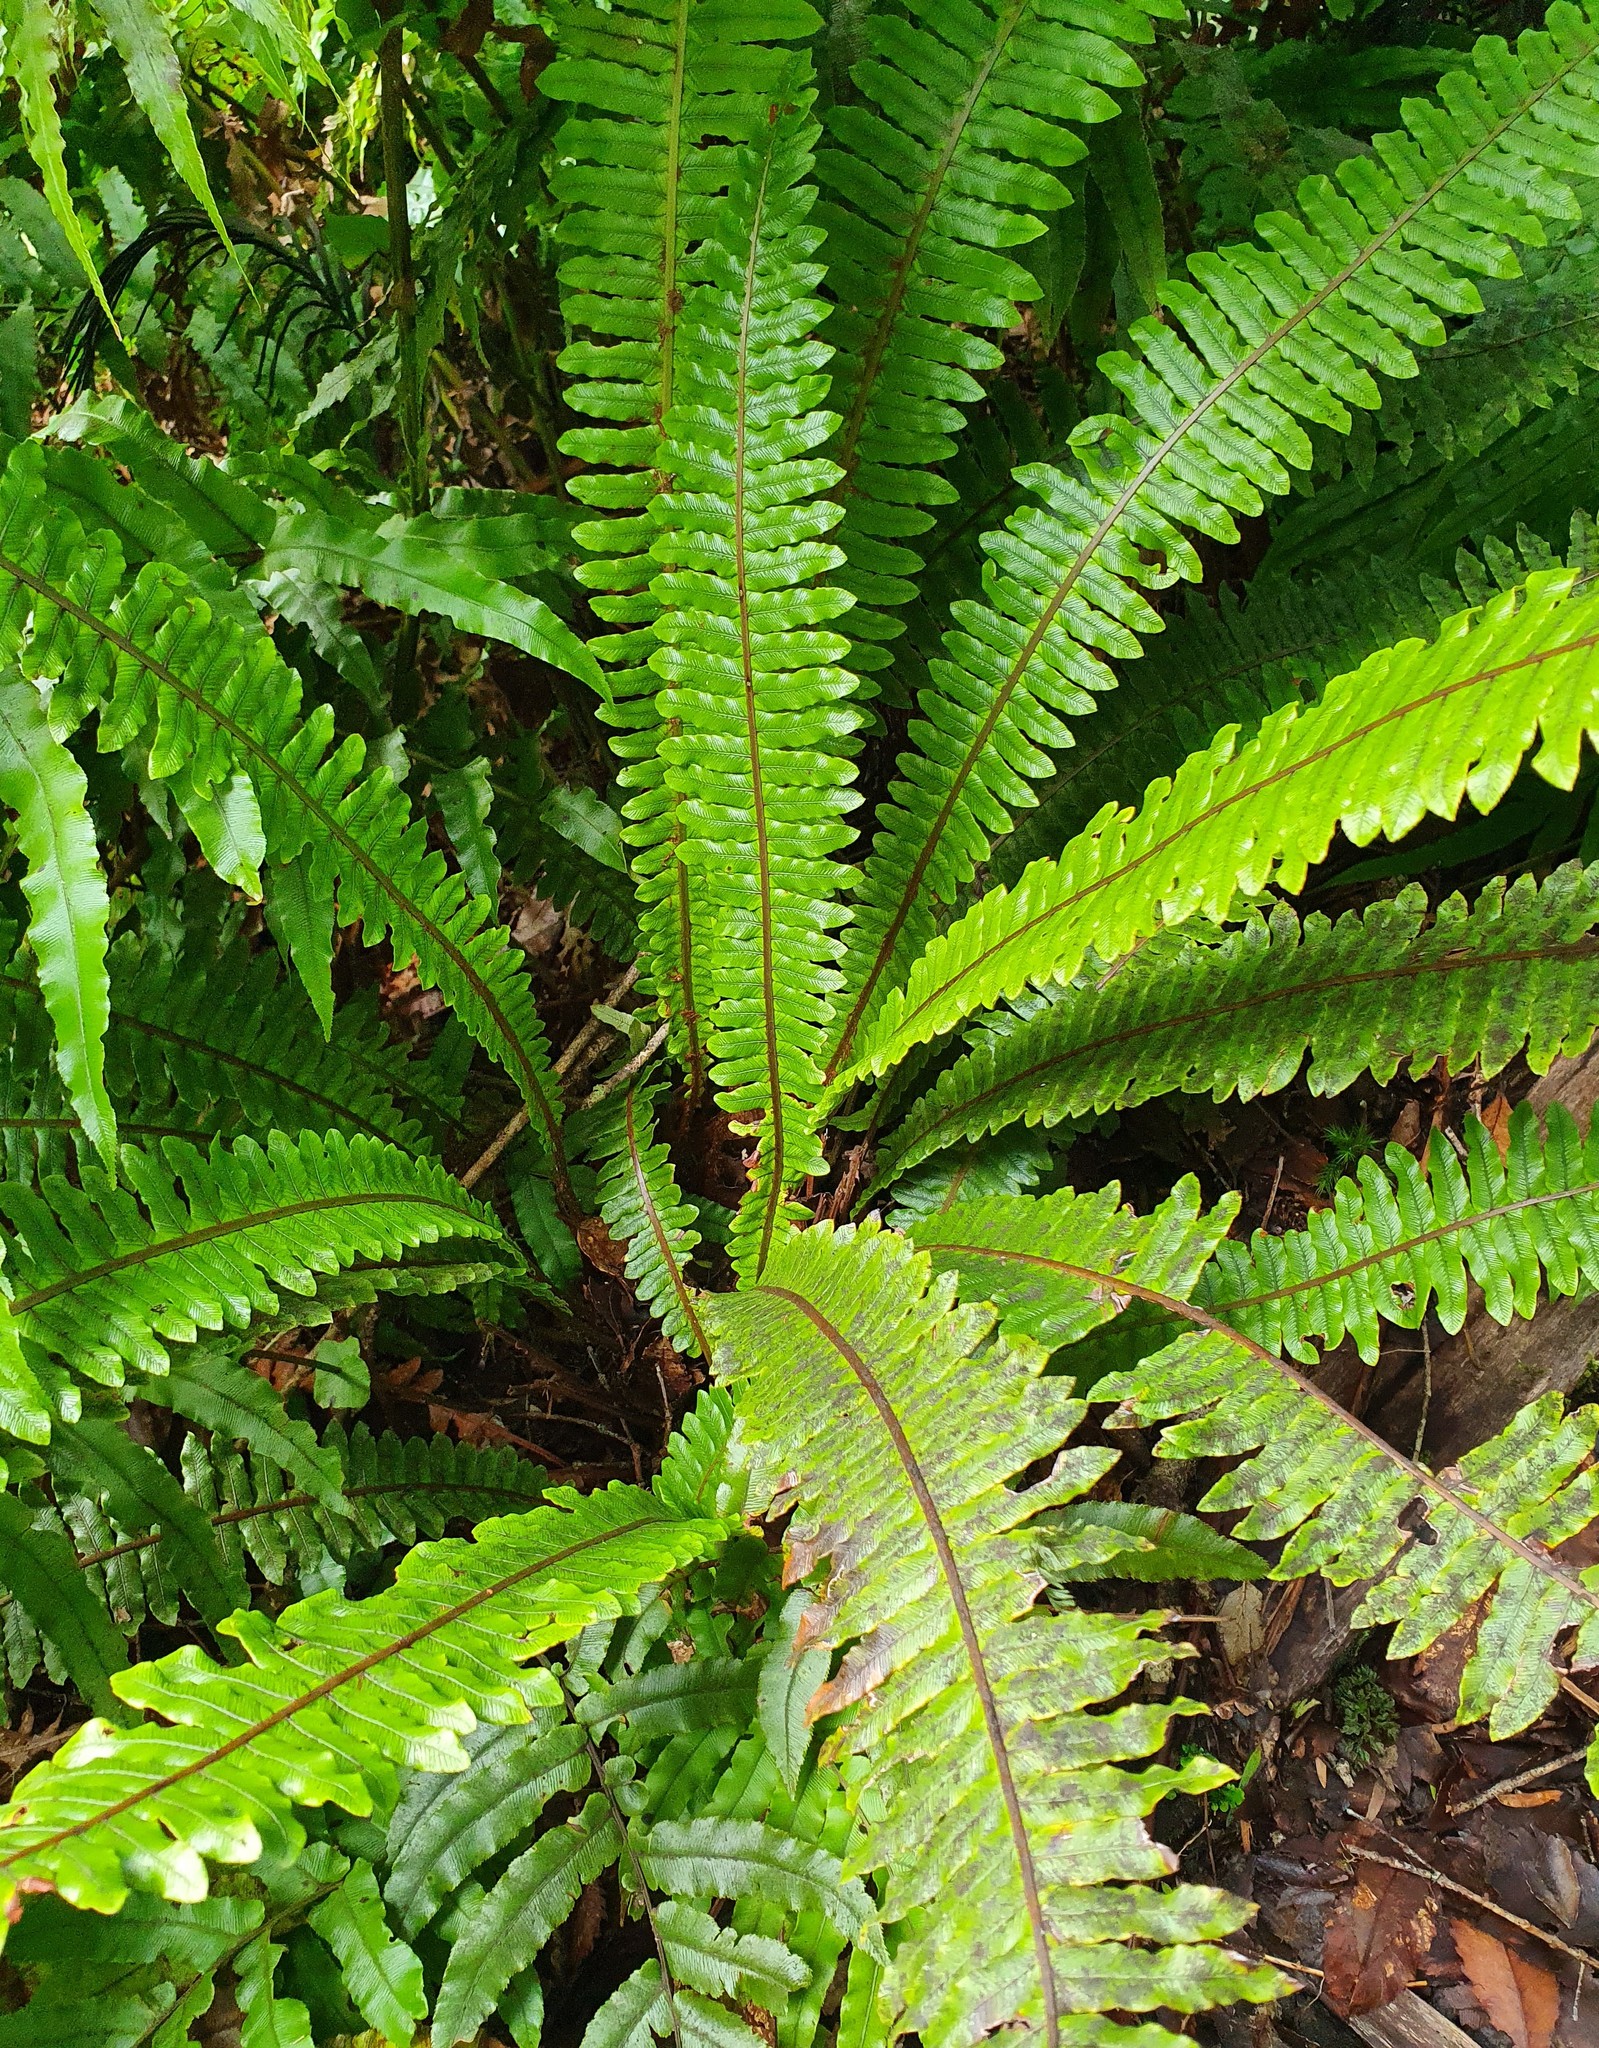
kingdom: Plantae
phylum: Tracheophyta
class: Polypodiopsida
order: Polypodiales
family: Blechnaceae
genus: Lomaria
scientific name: Lomaria discolor
